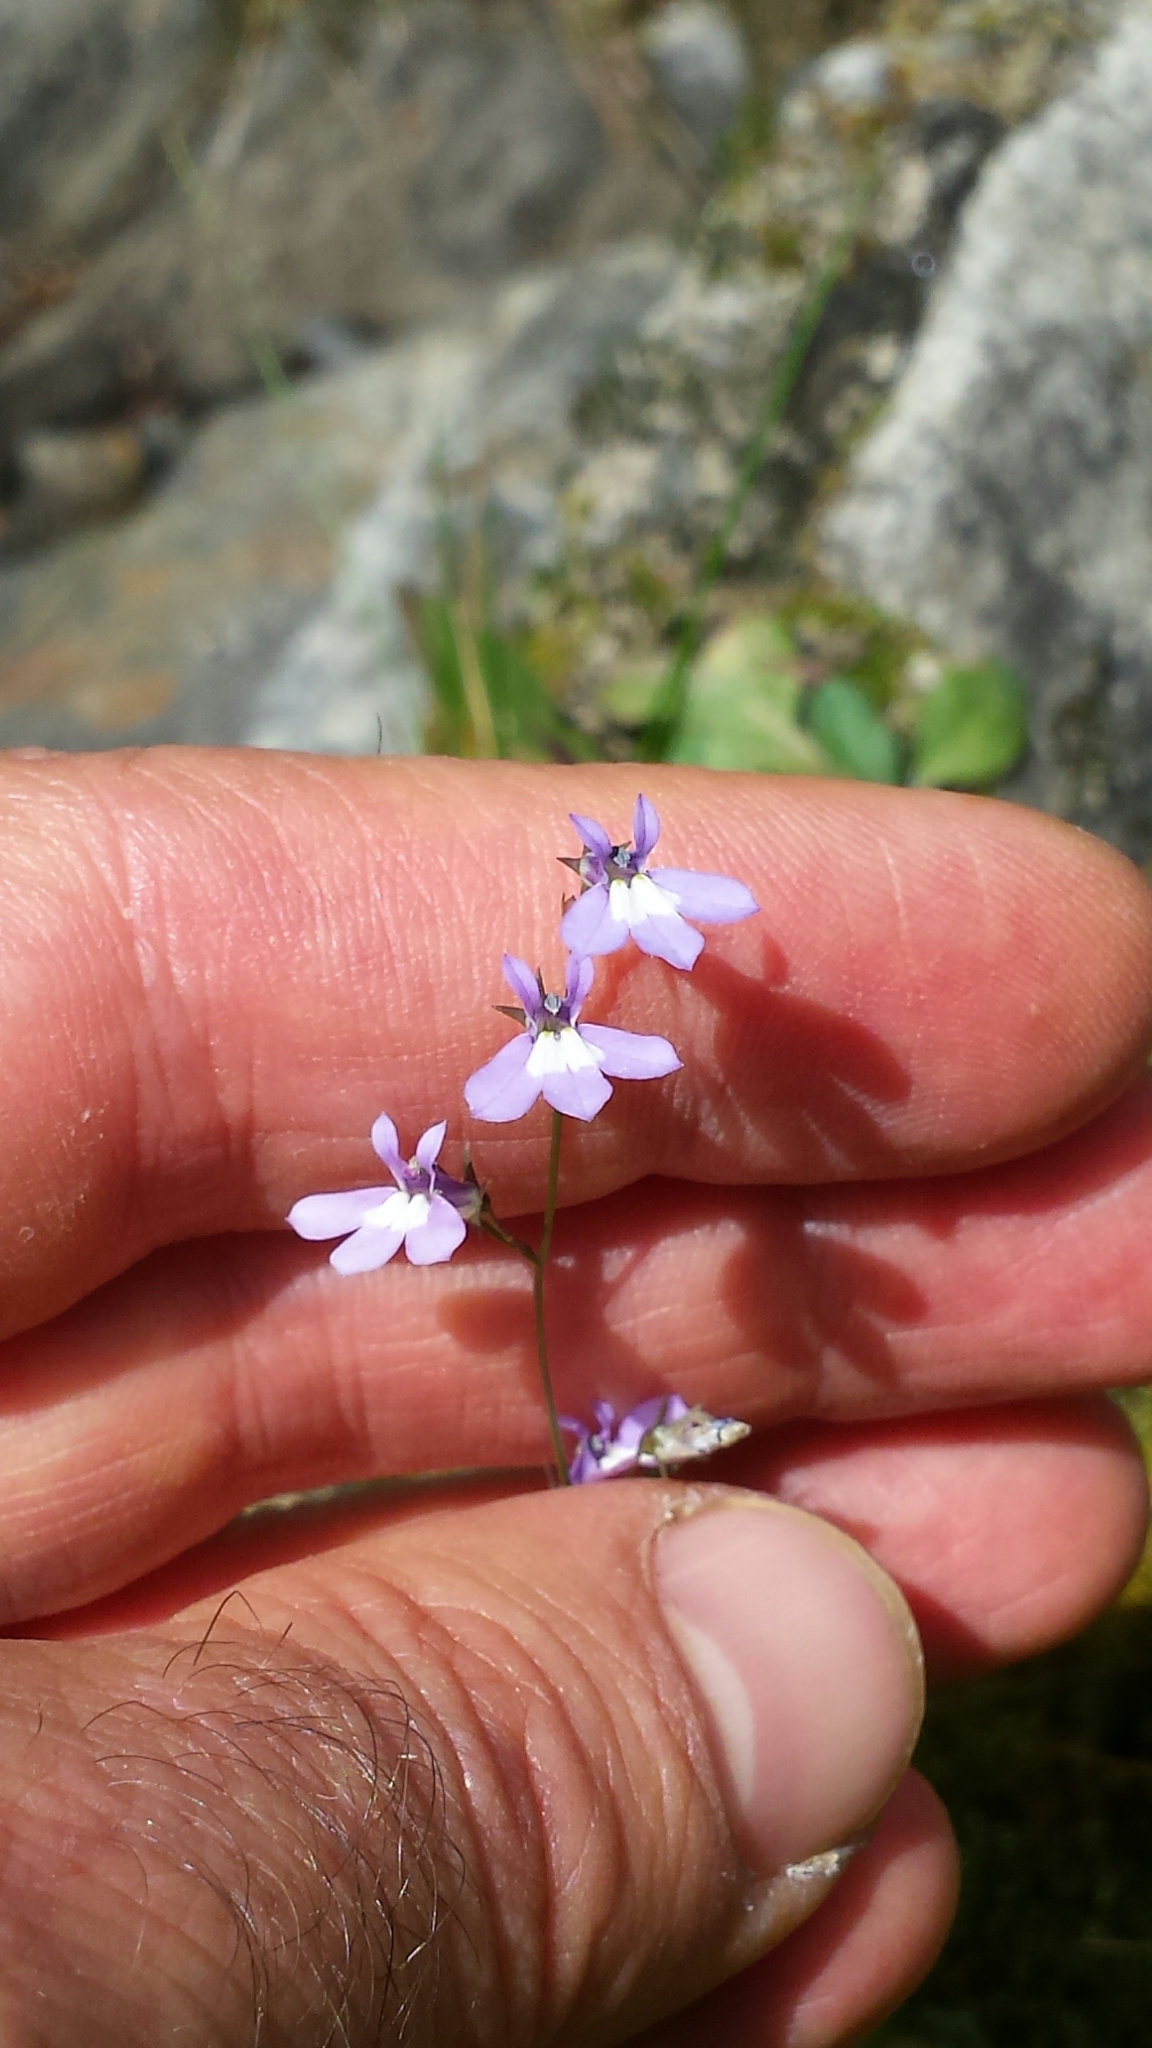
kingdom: Plantae
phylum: Tracheophyta
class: Magnoliopsida
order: Asterales
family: Campanulaceae
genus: Lobelia
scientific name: Lobelia kalmii
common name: Kalm's lobelia
